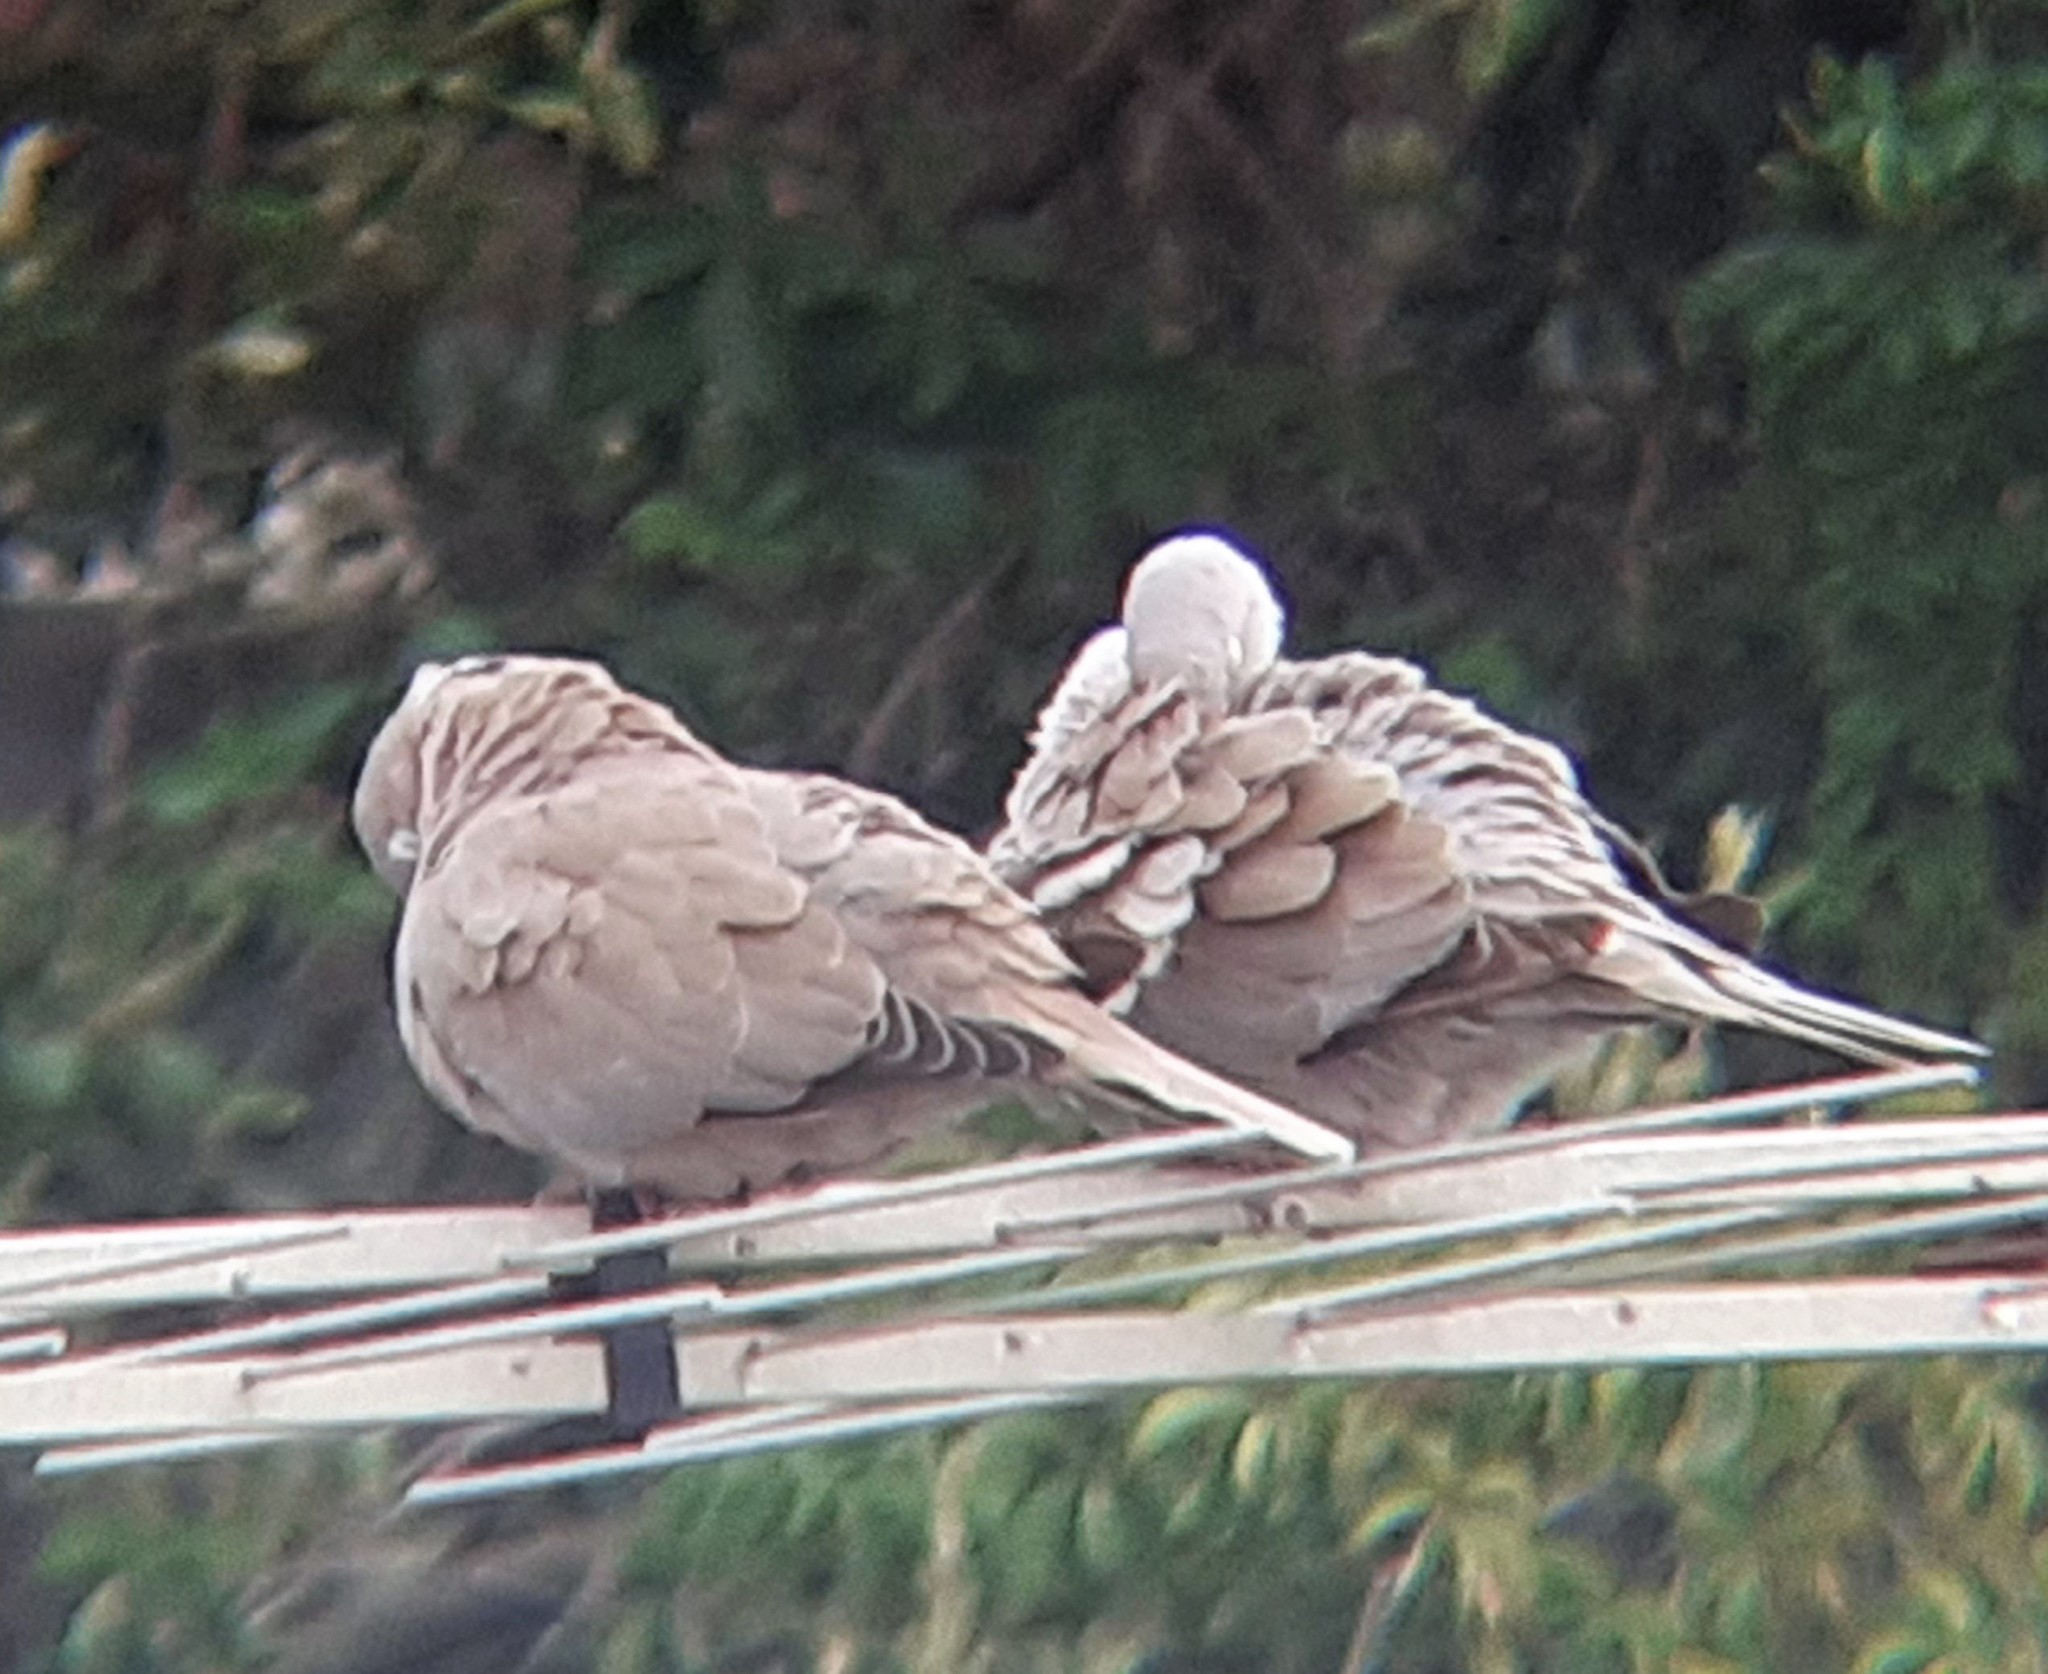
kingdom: Animalia
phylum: Chordata
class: Aves
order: Columbiformes
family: Columbidae
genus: Streptopelia
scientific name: Streptopelia decaocto
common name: Eurasian collared dove
